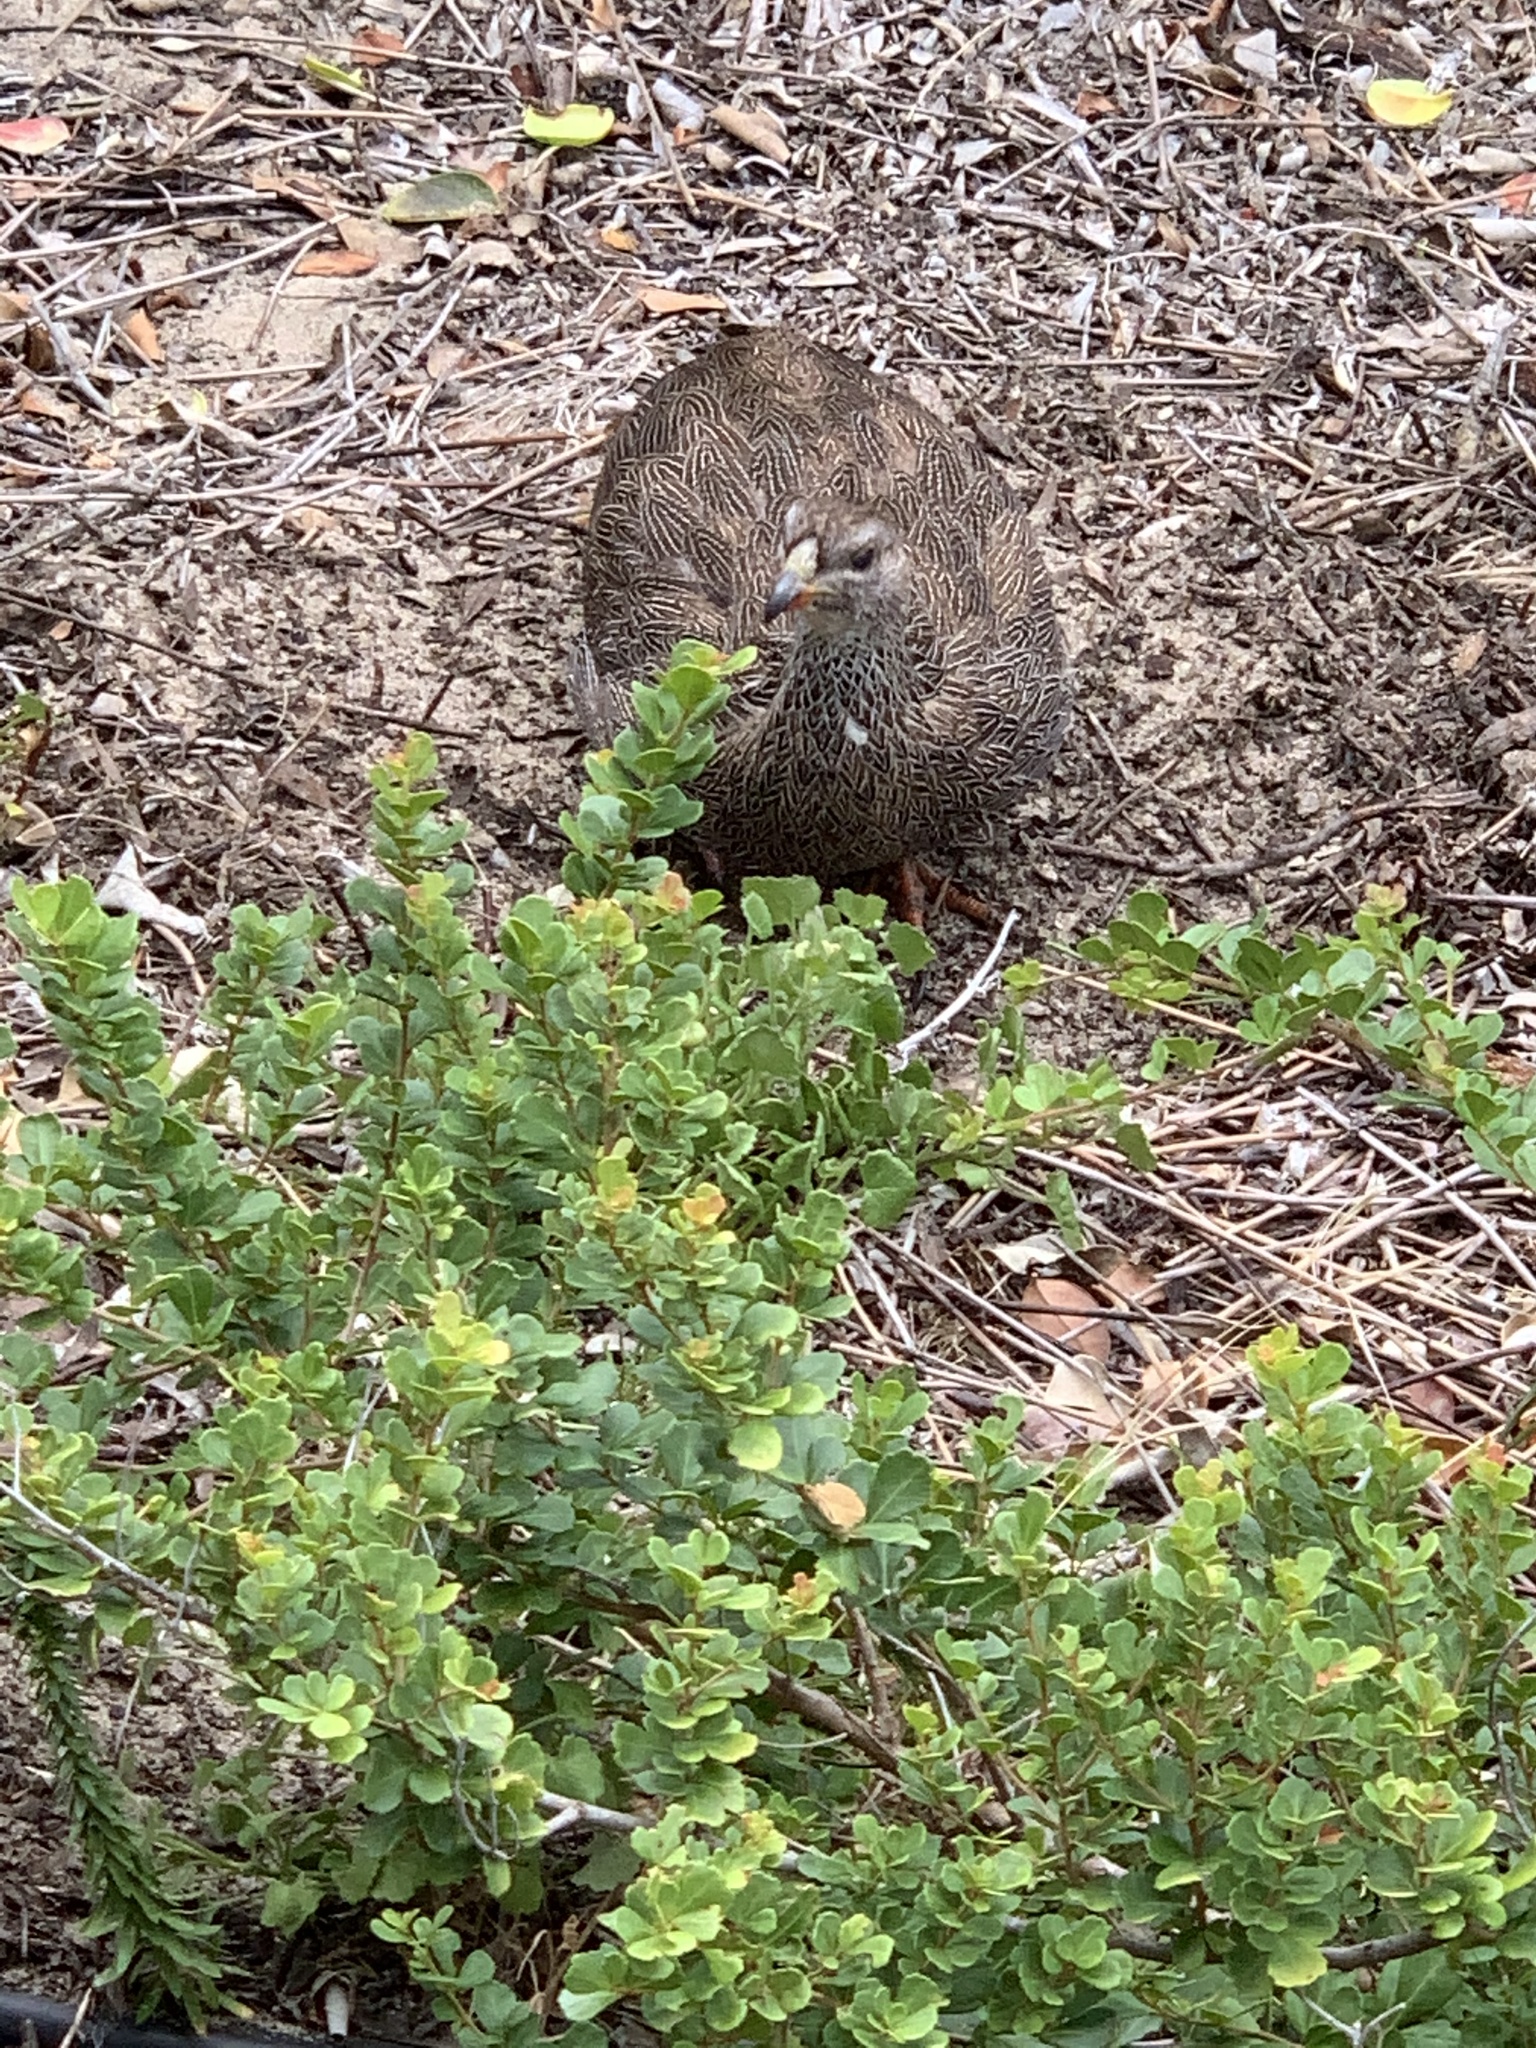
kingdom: Animalia
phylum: Chordata
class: Aves
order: Galliformes
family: Phasianidae
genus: Pternistis
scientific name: Pternistis capensis
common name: Cape spurfowl
